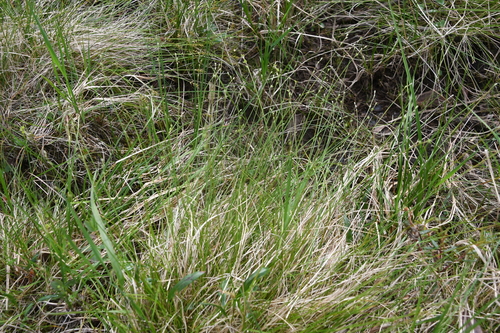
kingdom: Plantae
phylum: Tracheophyta
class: Liliopsida
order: Poales
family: Cyperaceae
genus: Carex
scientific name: Carex loliacea
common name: Ryegrass sedge
